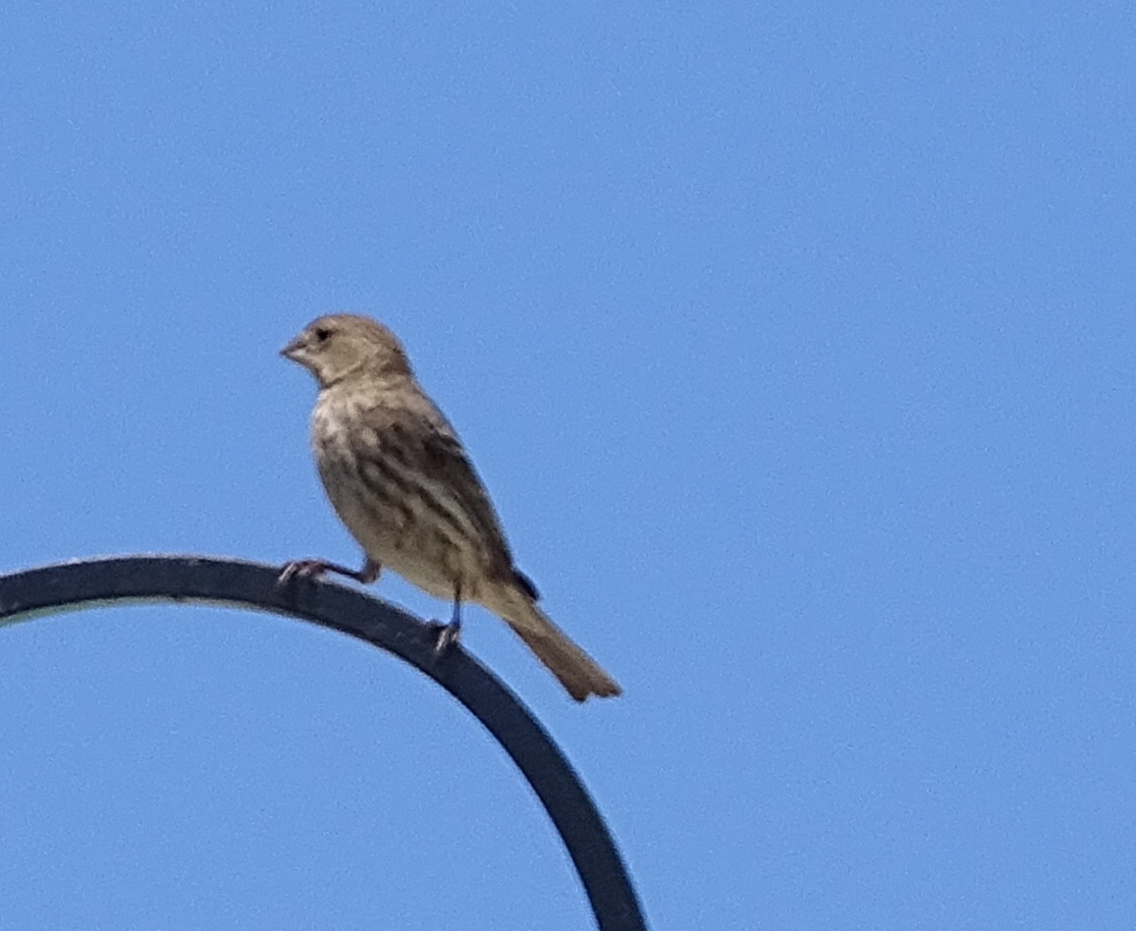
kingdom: Animalia
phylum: Chordata
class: Aves
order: Passeriformes
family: Fringillidae
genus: Haemorhous
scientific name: Haemorhous mexicanus
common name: House finch
